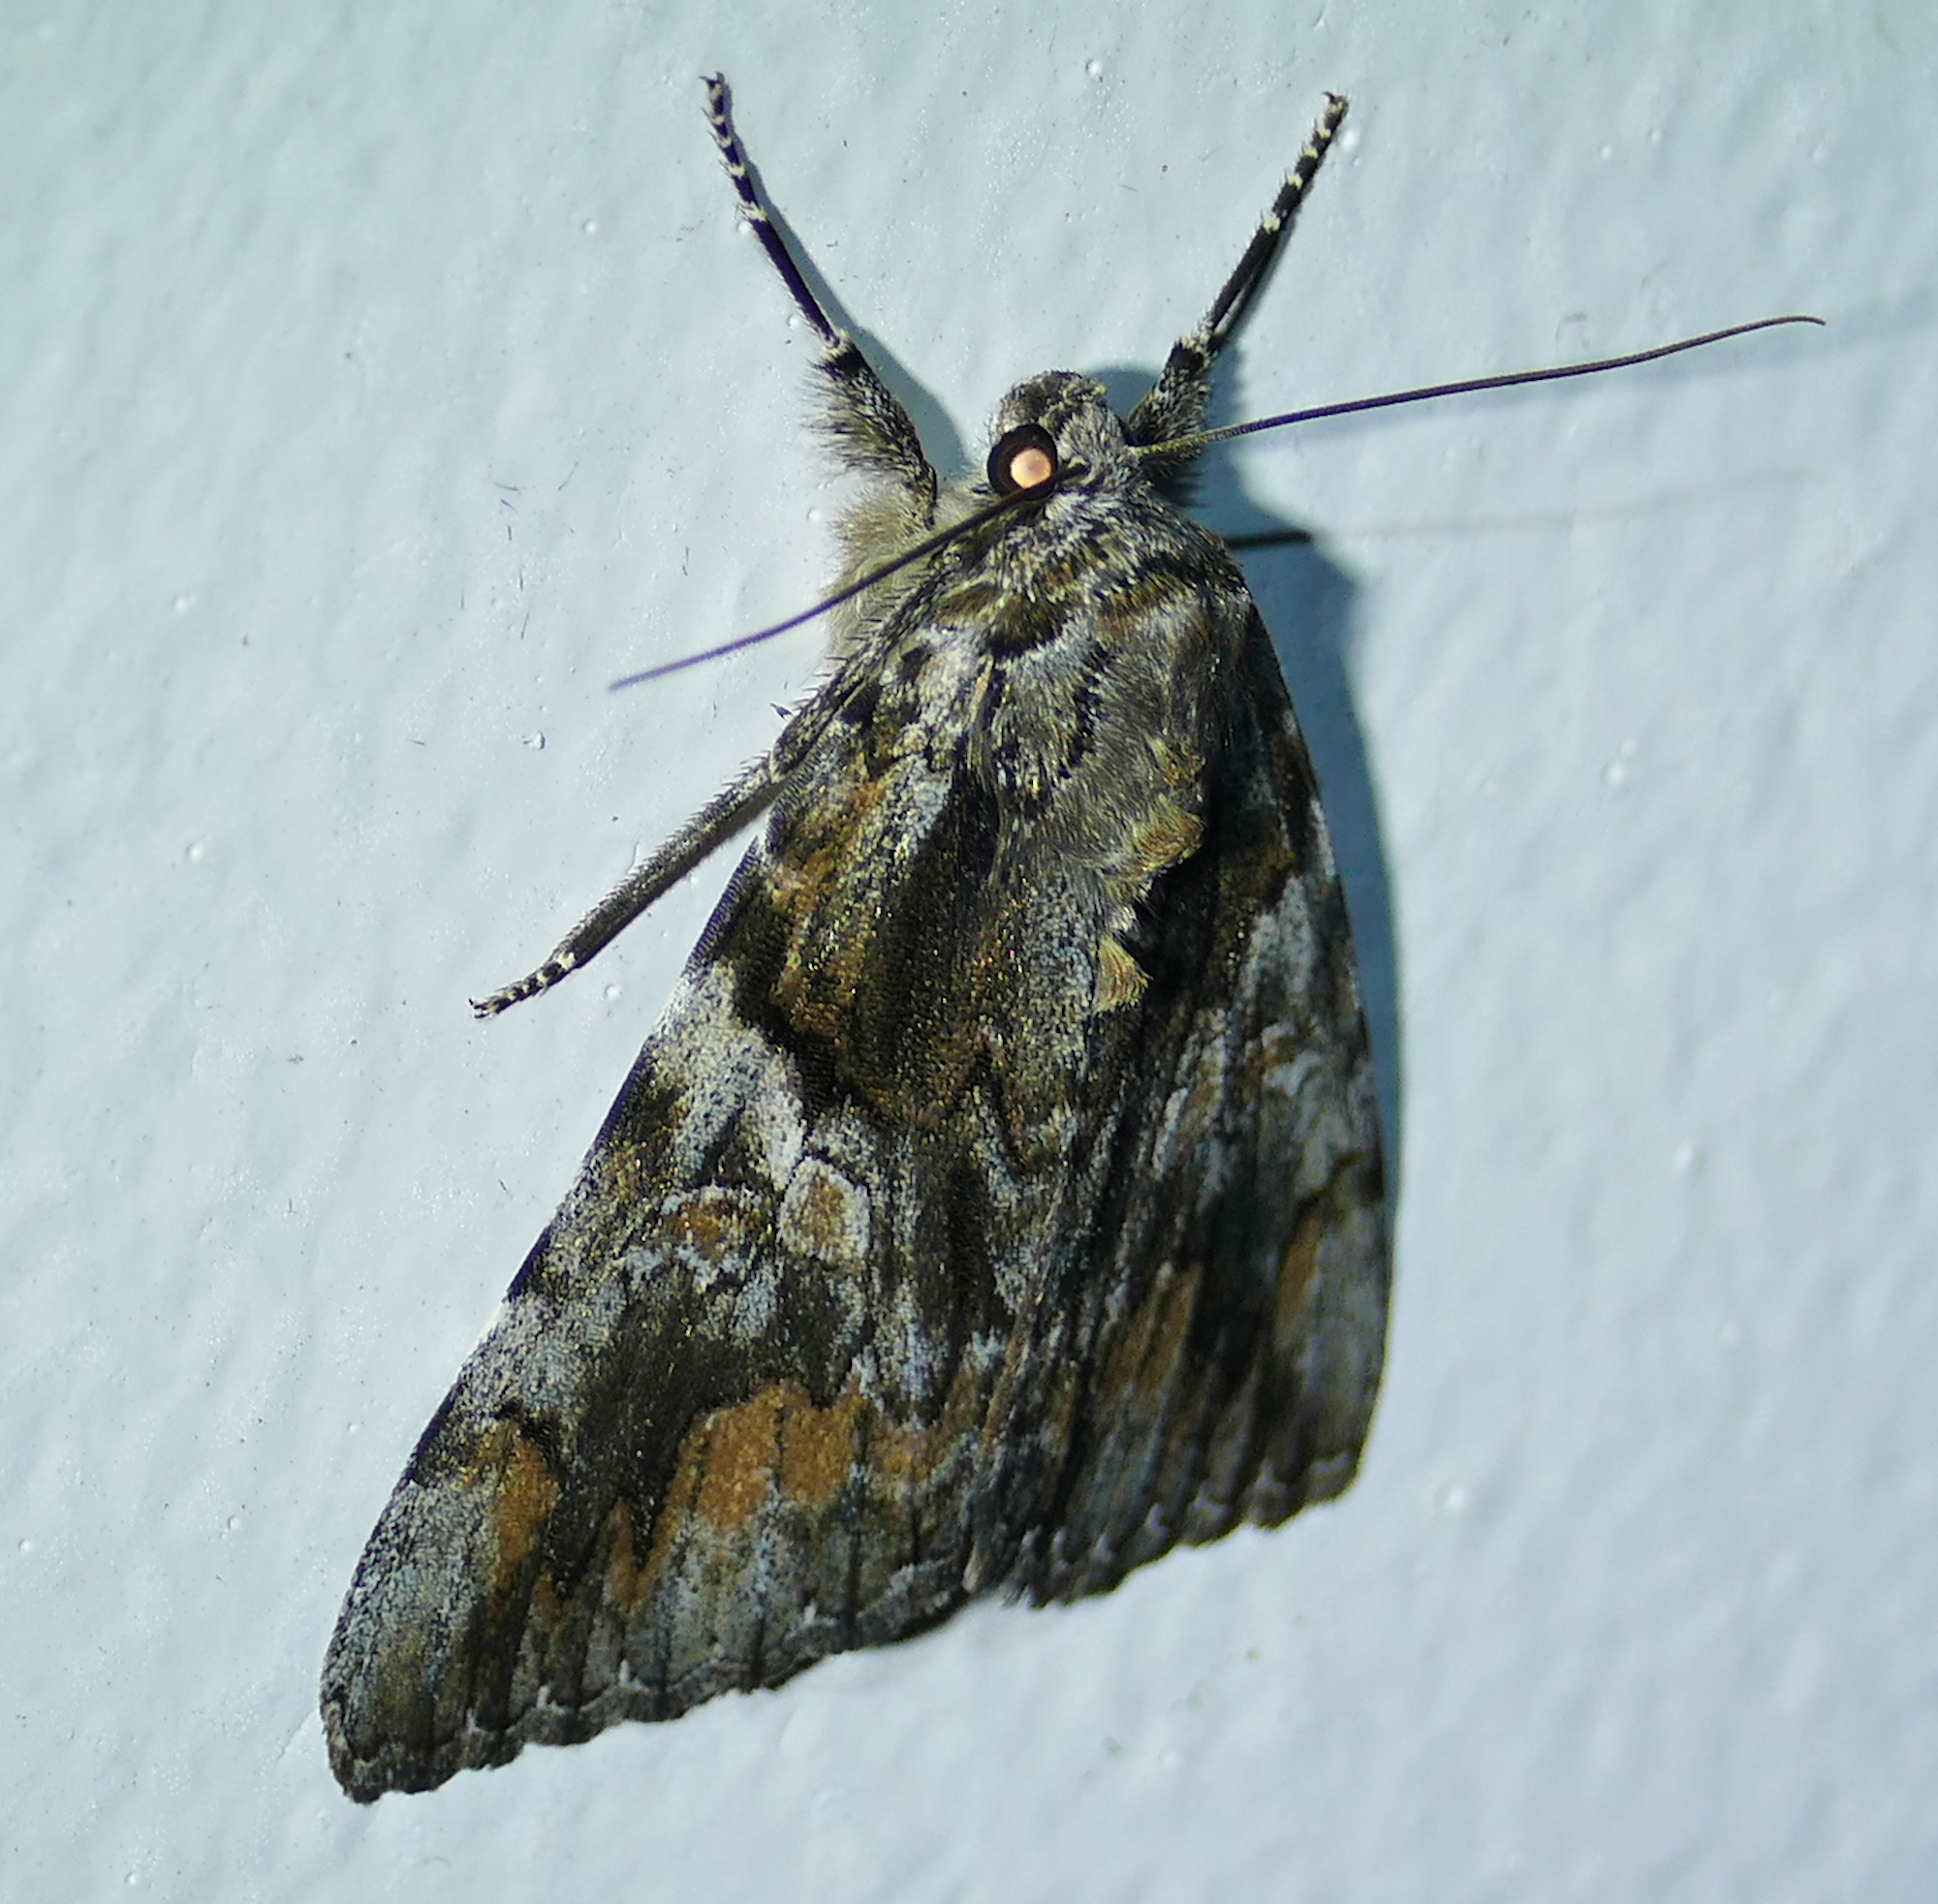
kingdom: Animalia
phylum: Arthropoda
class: Insecta
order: Lepidoptera
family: Erebidae
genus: Catocala
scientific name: Catocala violenta
